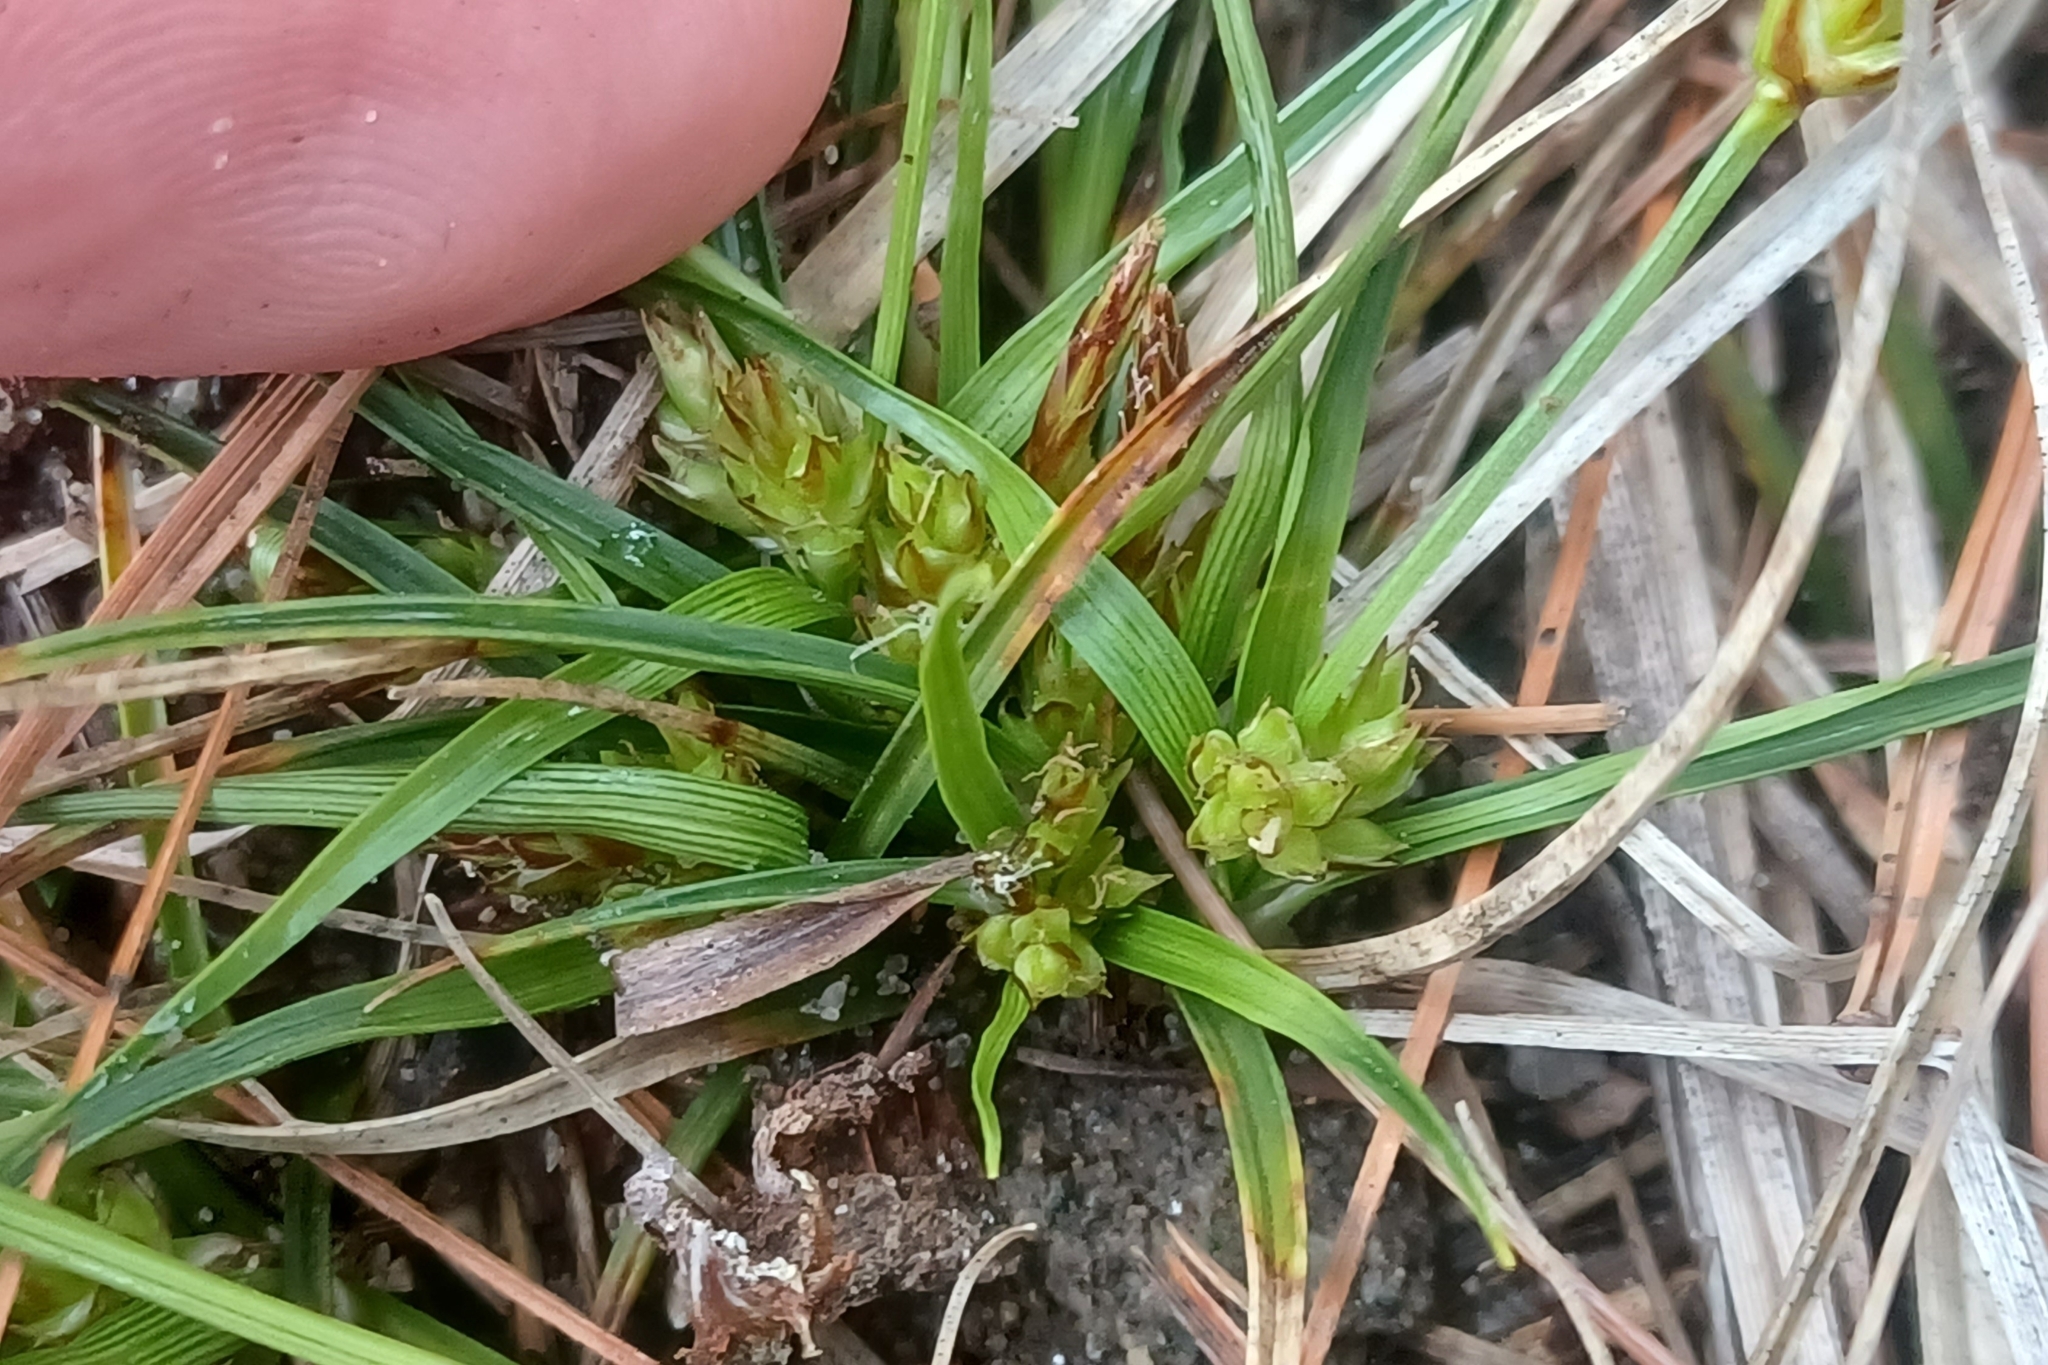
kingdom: Plantae
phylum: Tracheophyta
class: Liliopsida
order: Poales
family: Cyperaceae
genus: Carex
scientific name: Carex umbellata
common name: Early oak sedge
